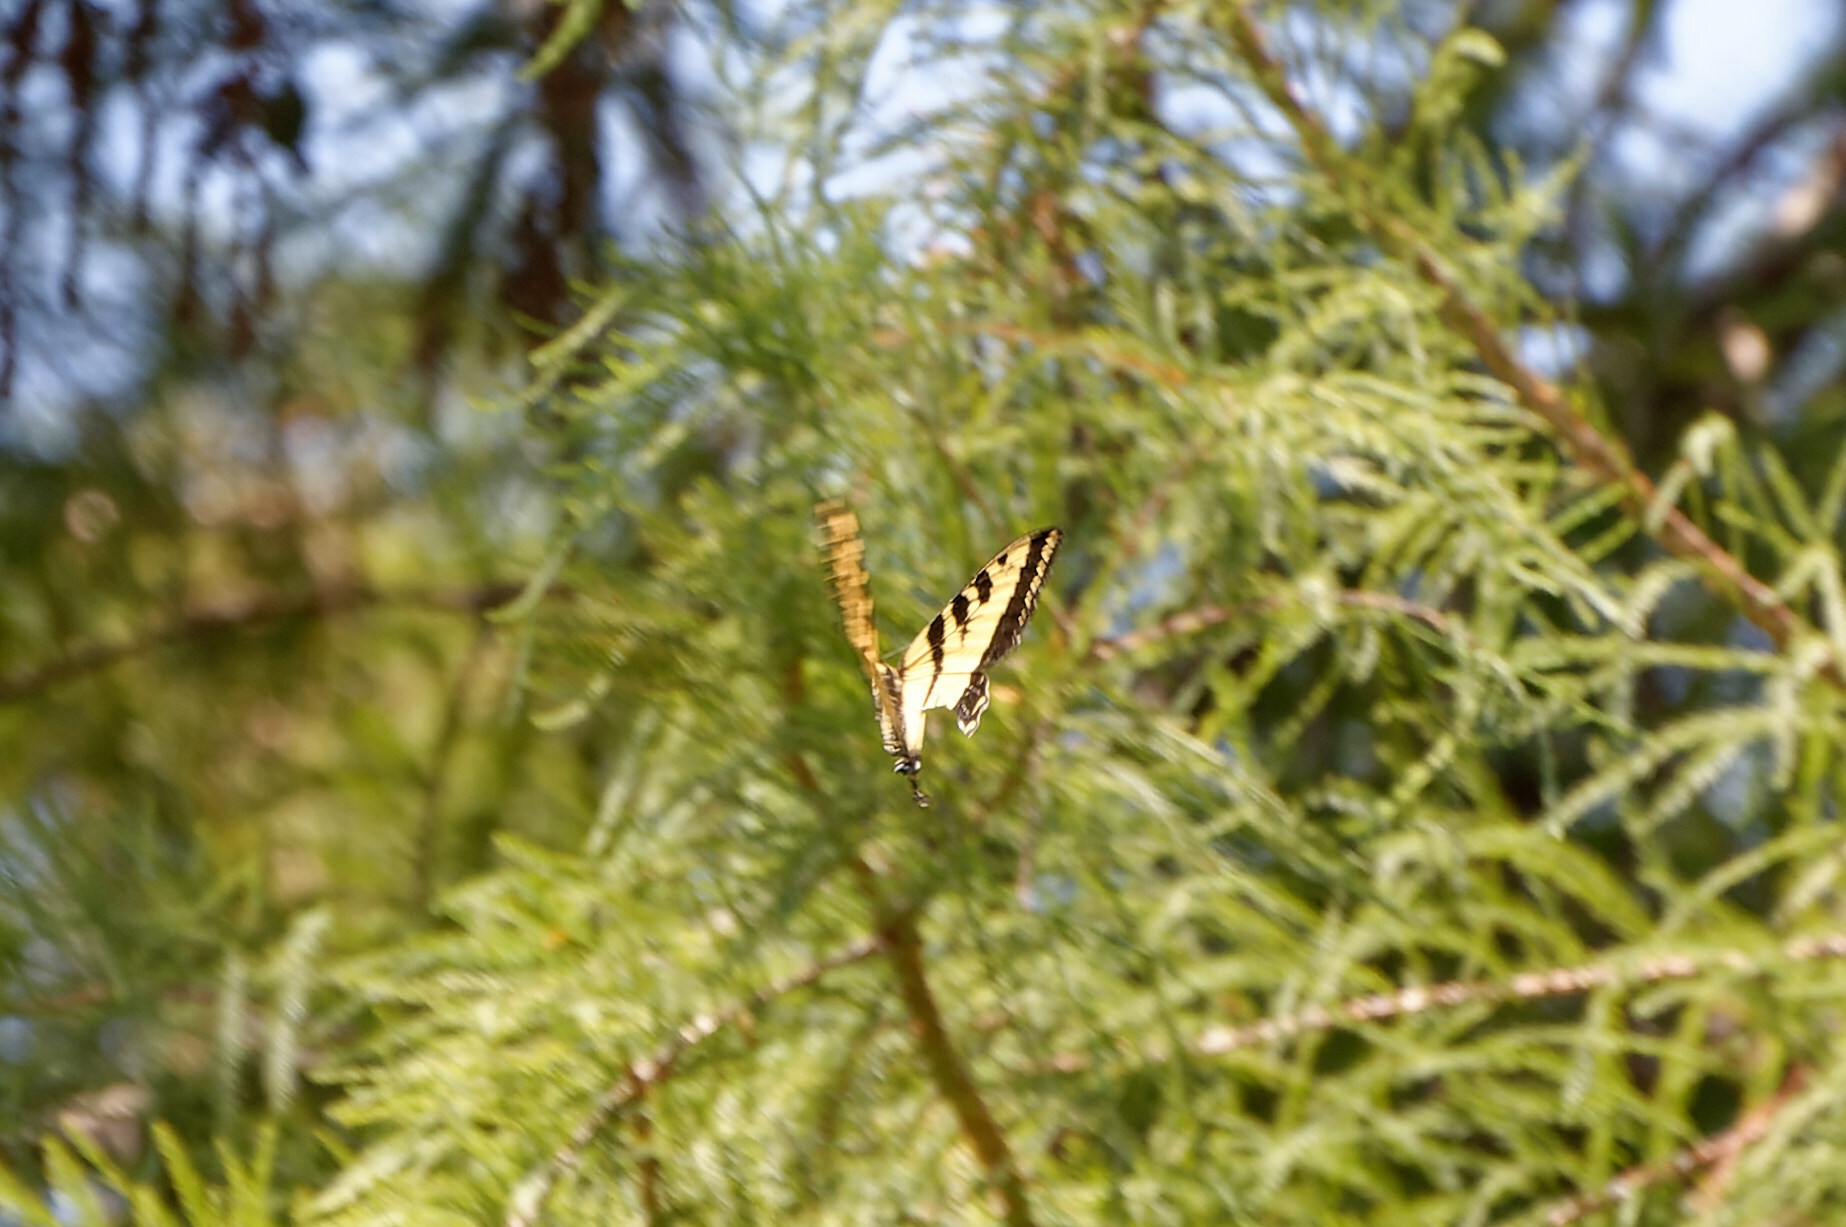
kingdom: Animalia
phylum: Arthropoda
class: Insecta
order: Lepidoptera
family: Papilionidae
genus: Papilio
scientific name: Papilio rutulus
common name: Western tiger swallowtail
